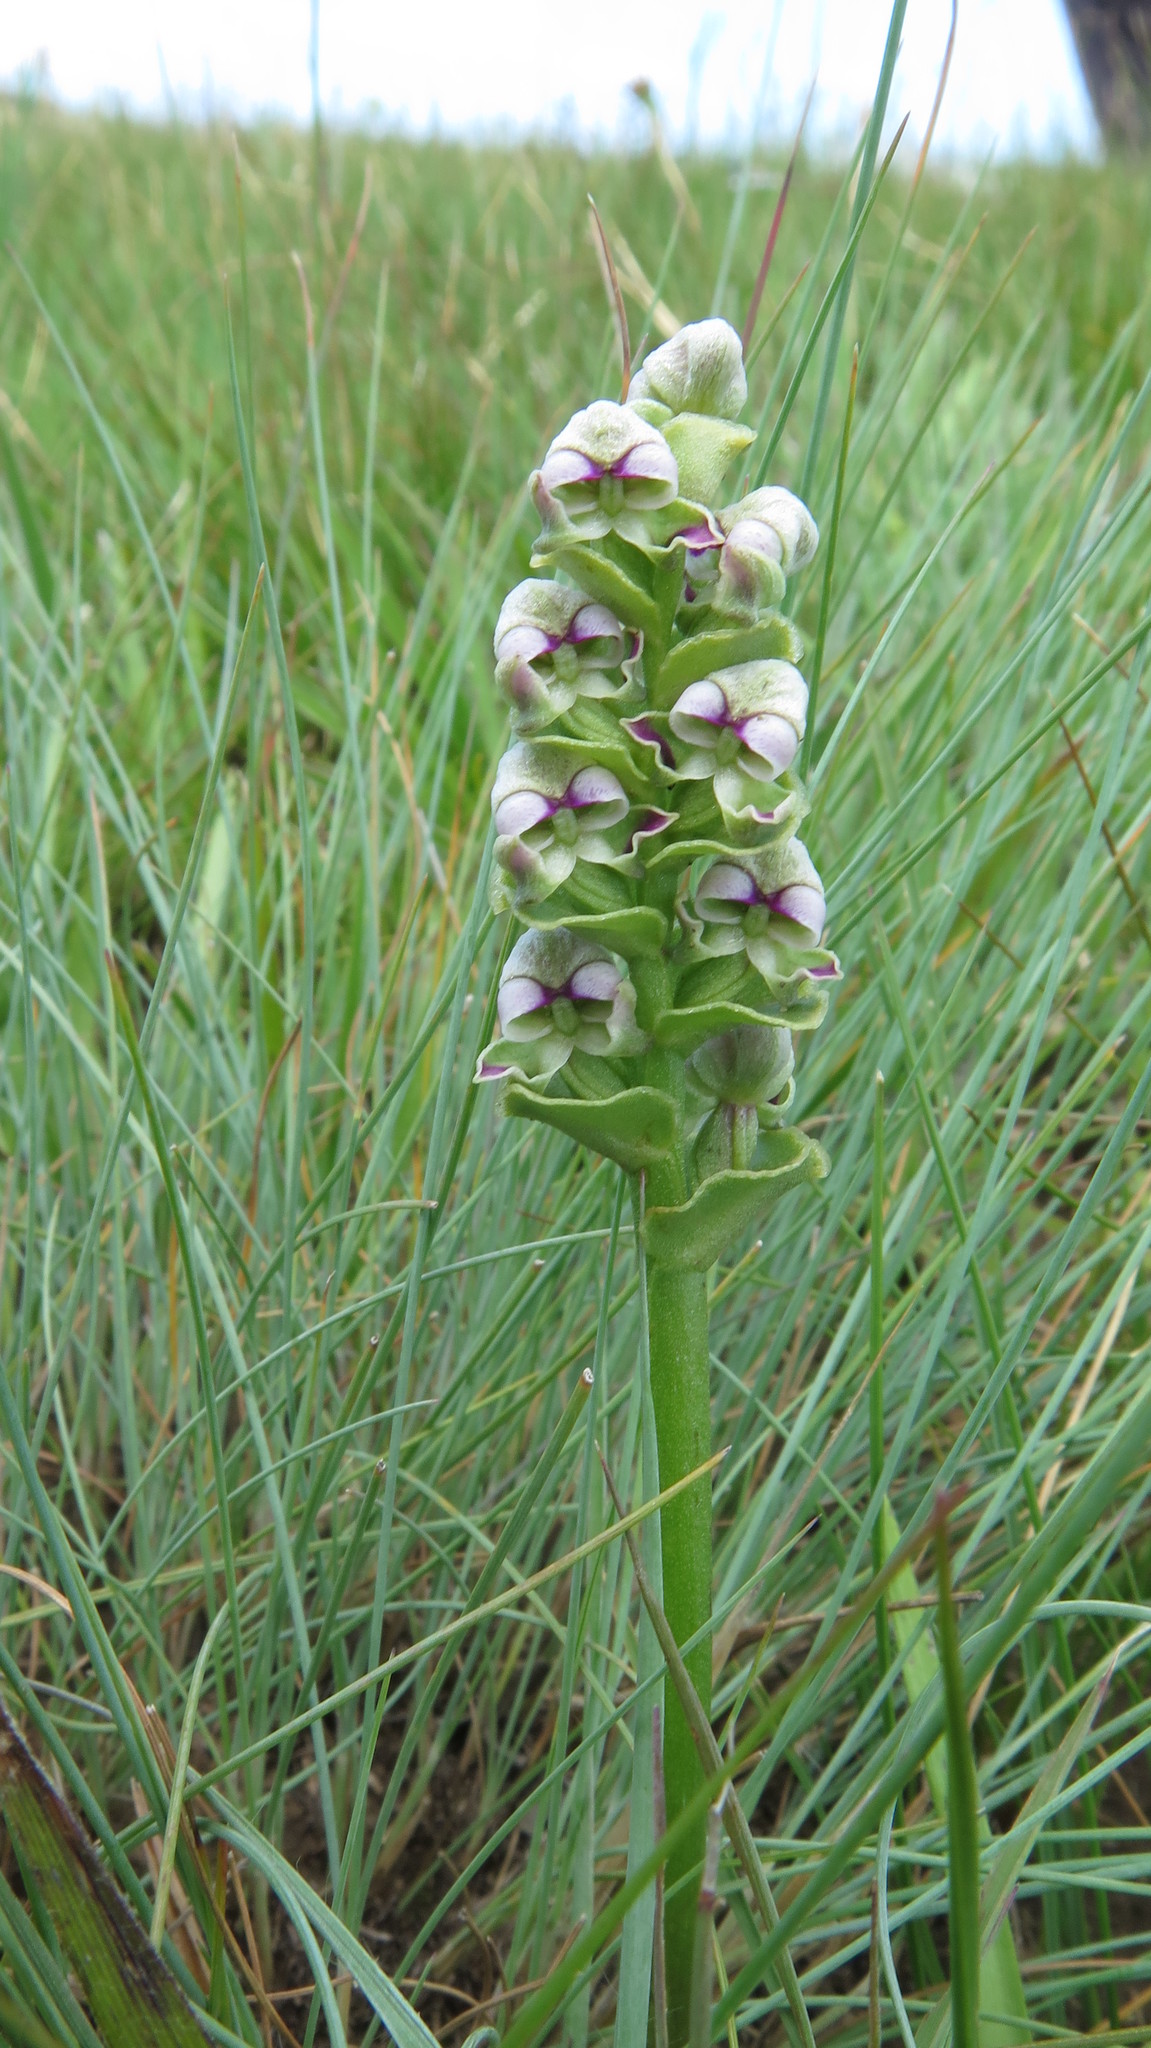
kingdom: Plantae
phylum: Tracheophyta
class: Liliopsida
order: Asparagales
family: Orchidaceae
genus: Disperis
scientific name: Disperis cardiophora
